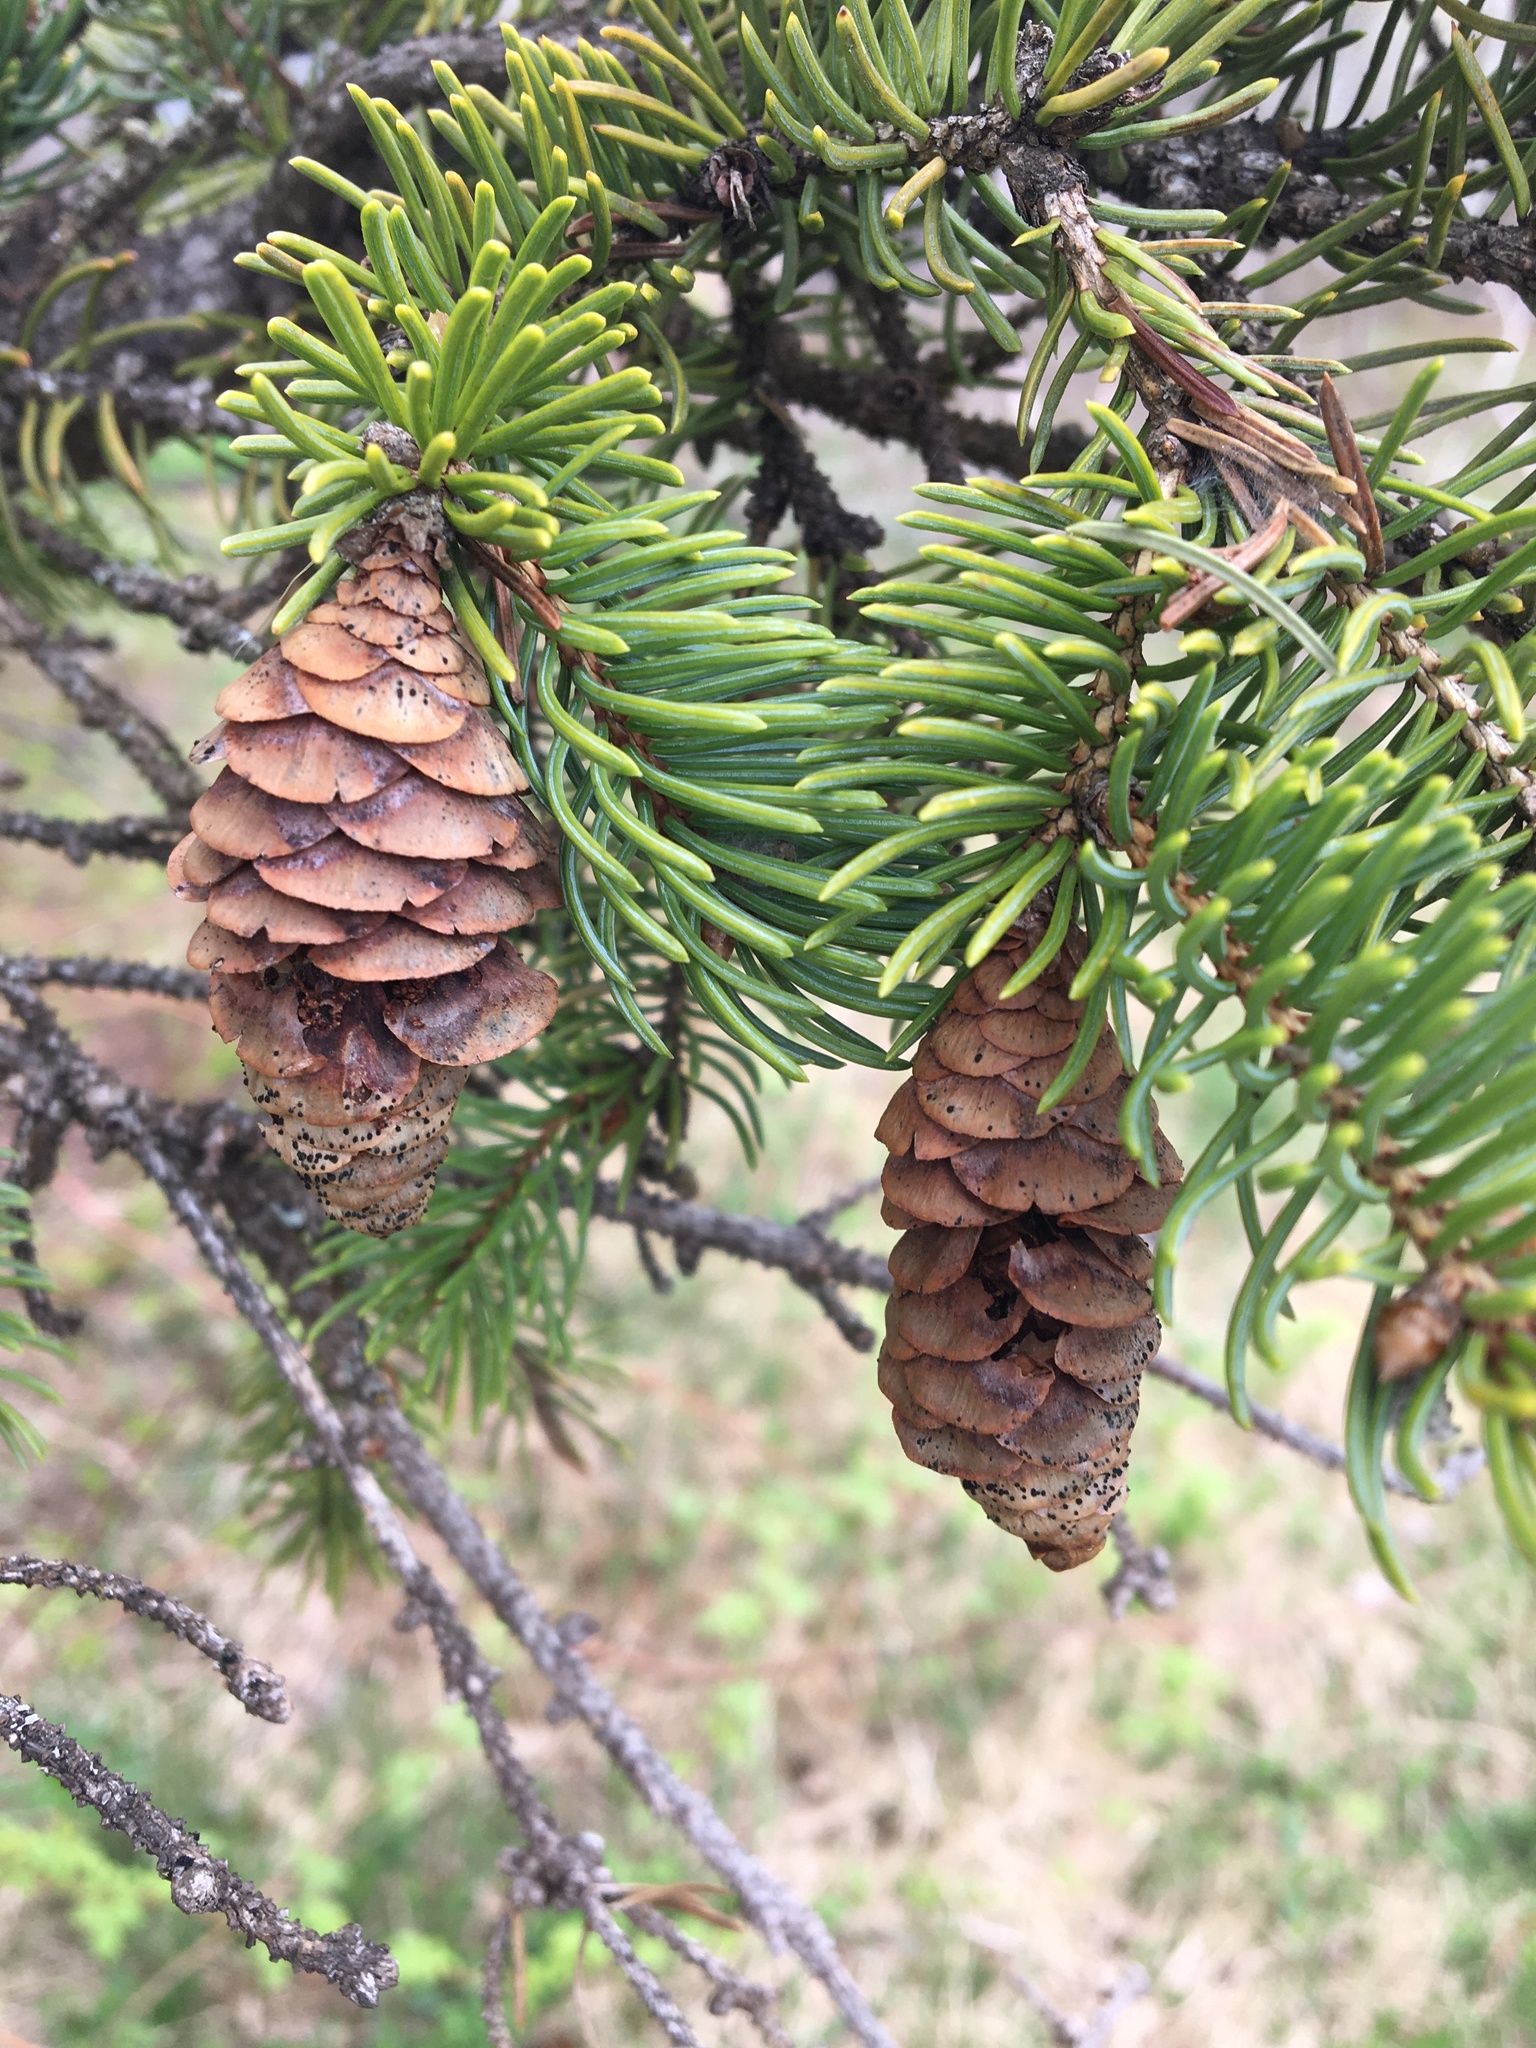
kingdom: Plantae
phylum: Tracheophyta
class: Pinopsida
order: Pinales
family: Pinaceae
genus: Picea
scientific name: Picea glauca
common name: White spruce
